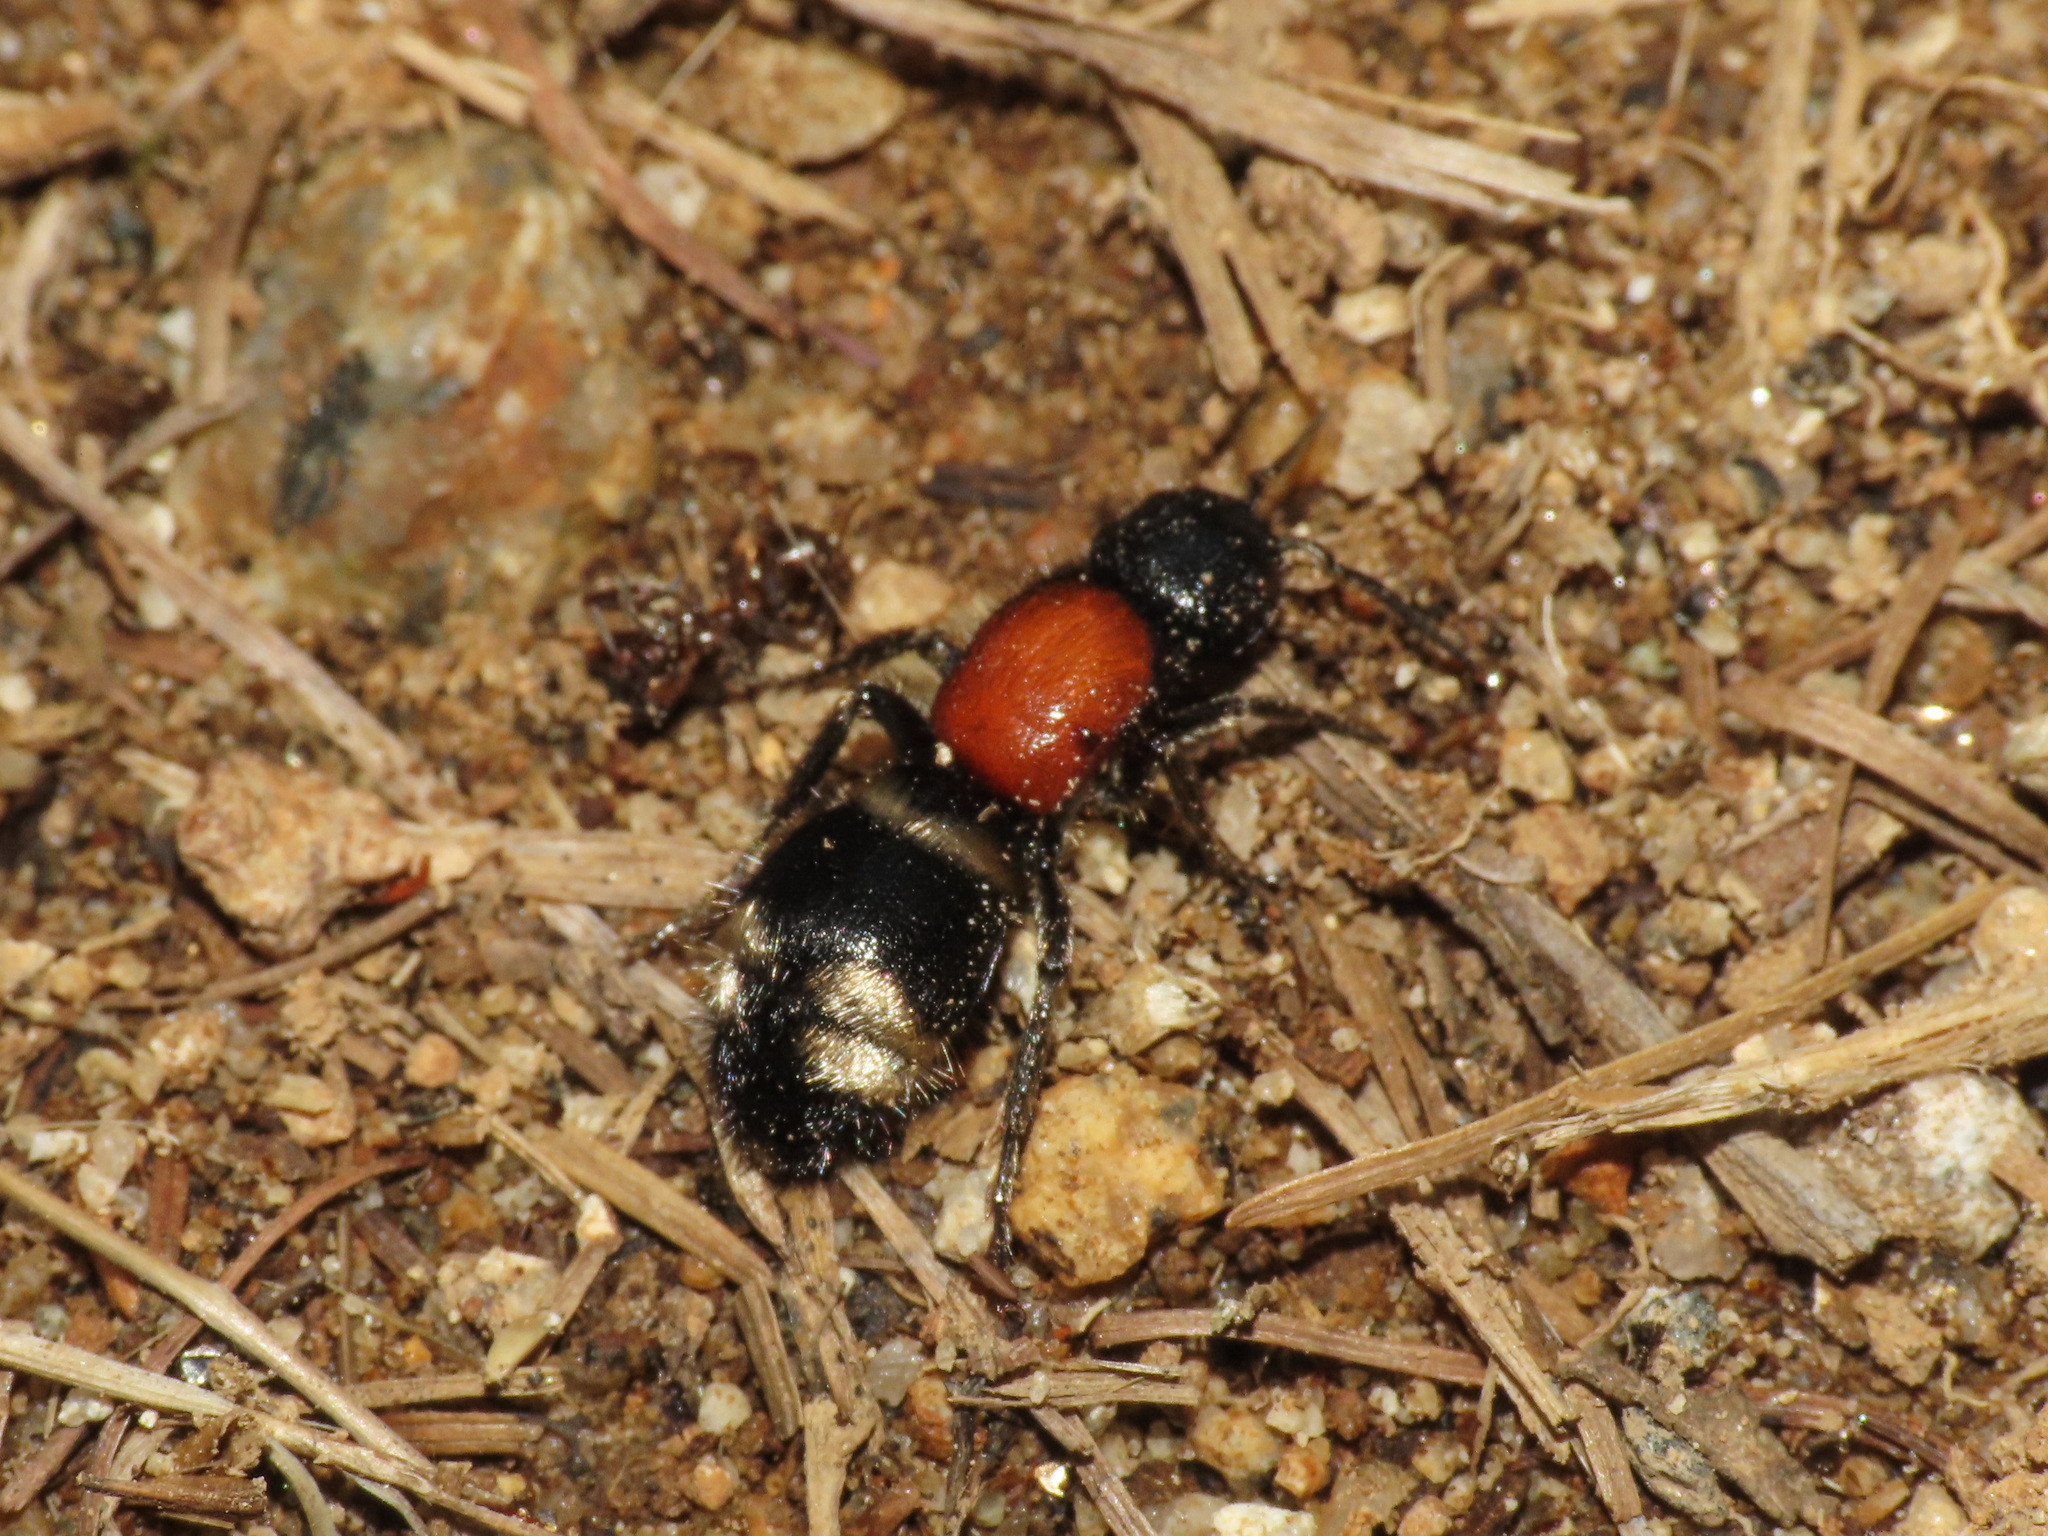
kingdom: Animalia
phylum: Arthropoda
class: Insecta
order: Hymenoptera
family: Mutillidae
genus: Mutilla
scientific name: Mutilla europaea
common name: Large velvet ant
